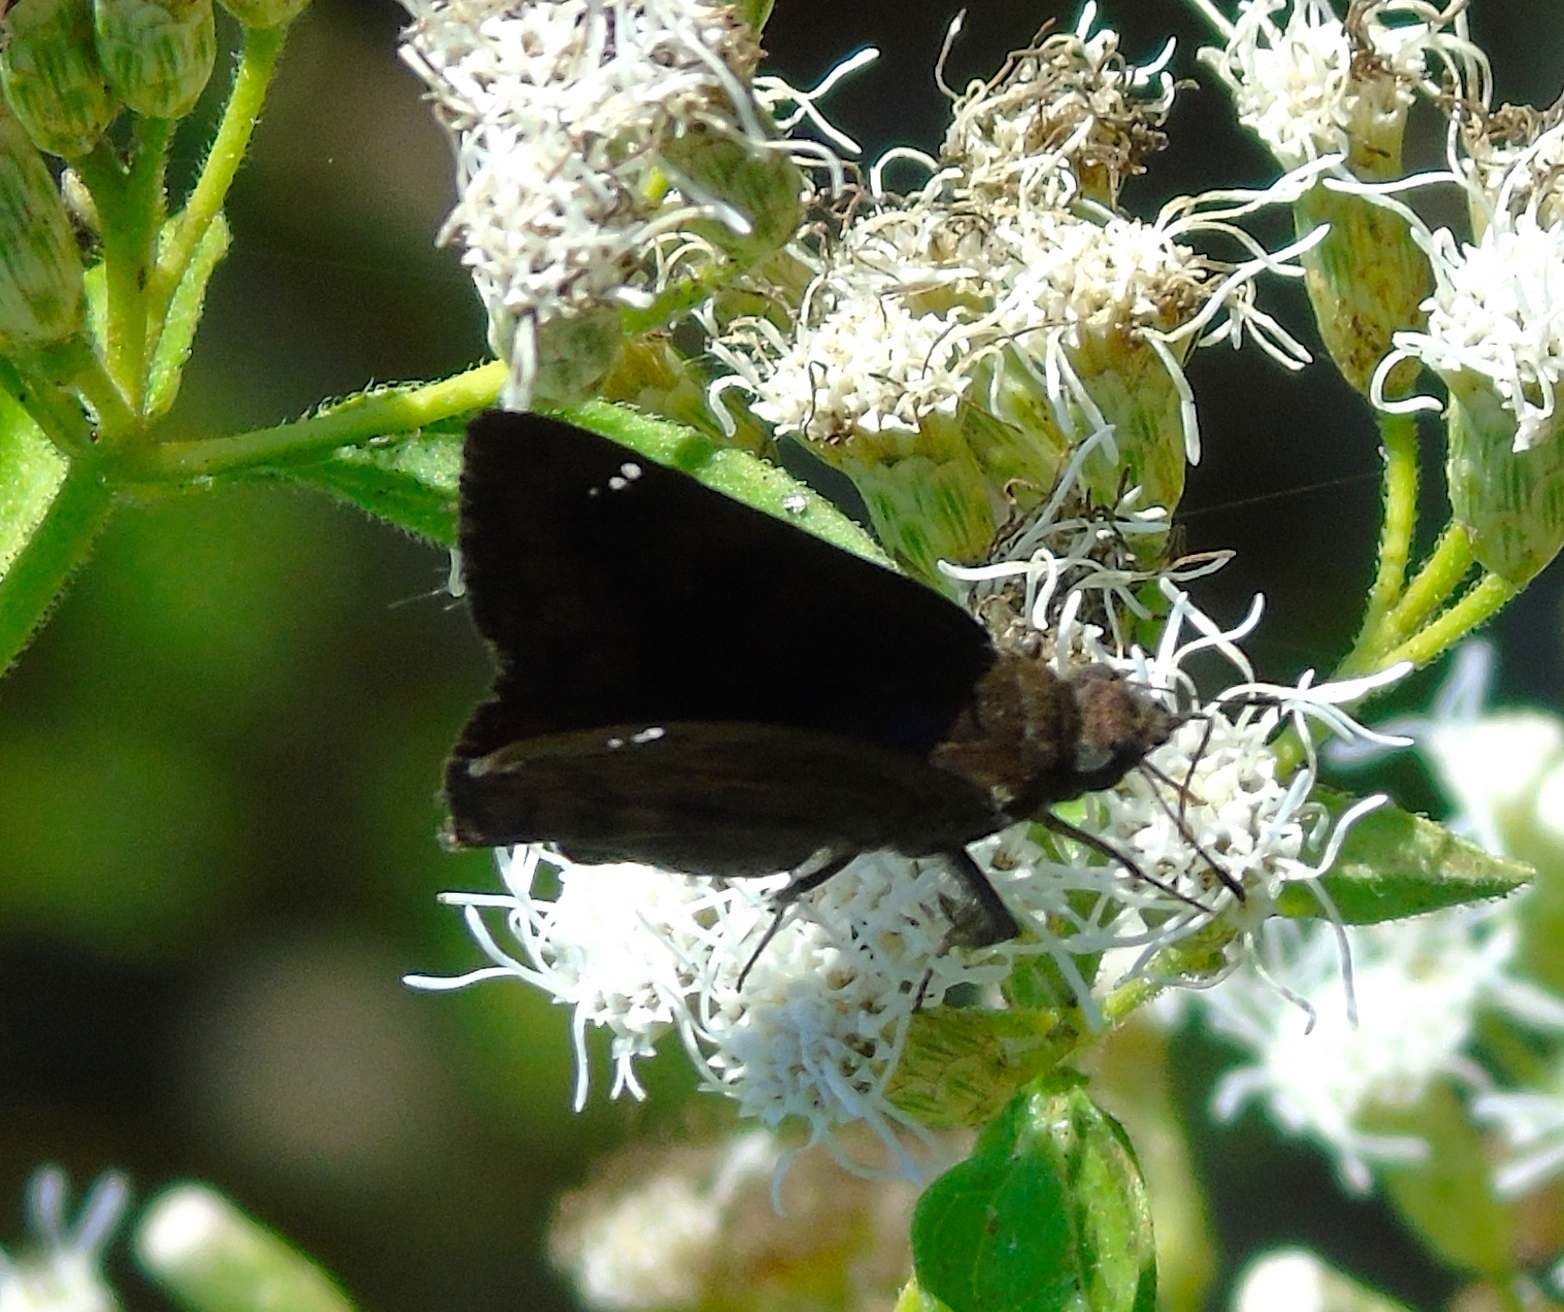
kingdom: Animalia
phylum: Arthropoda
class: Insecta
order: Lepidoptera
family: Hesperiidae
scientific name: Hesperiidae
